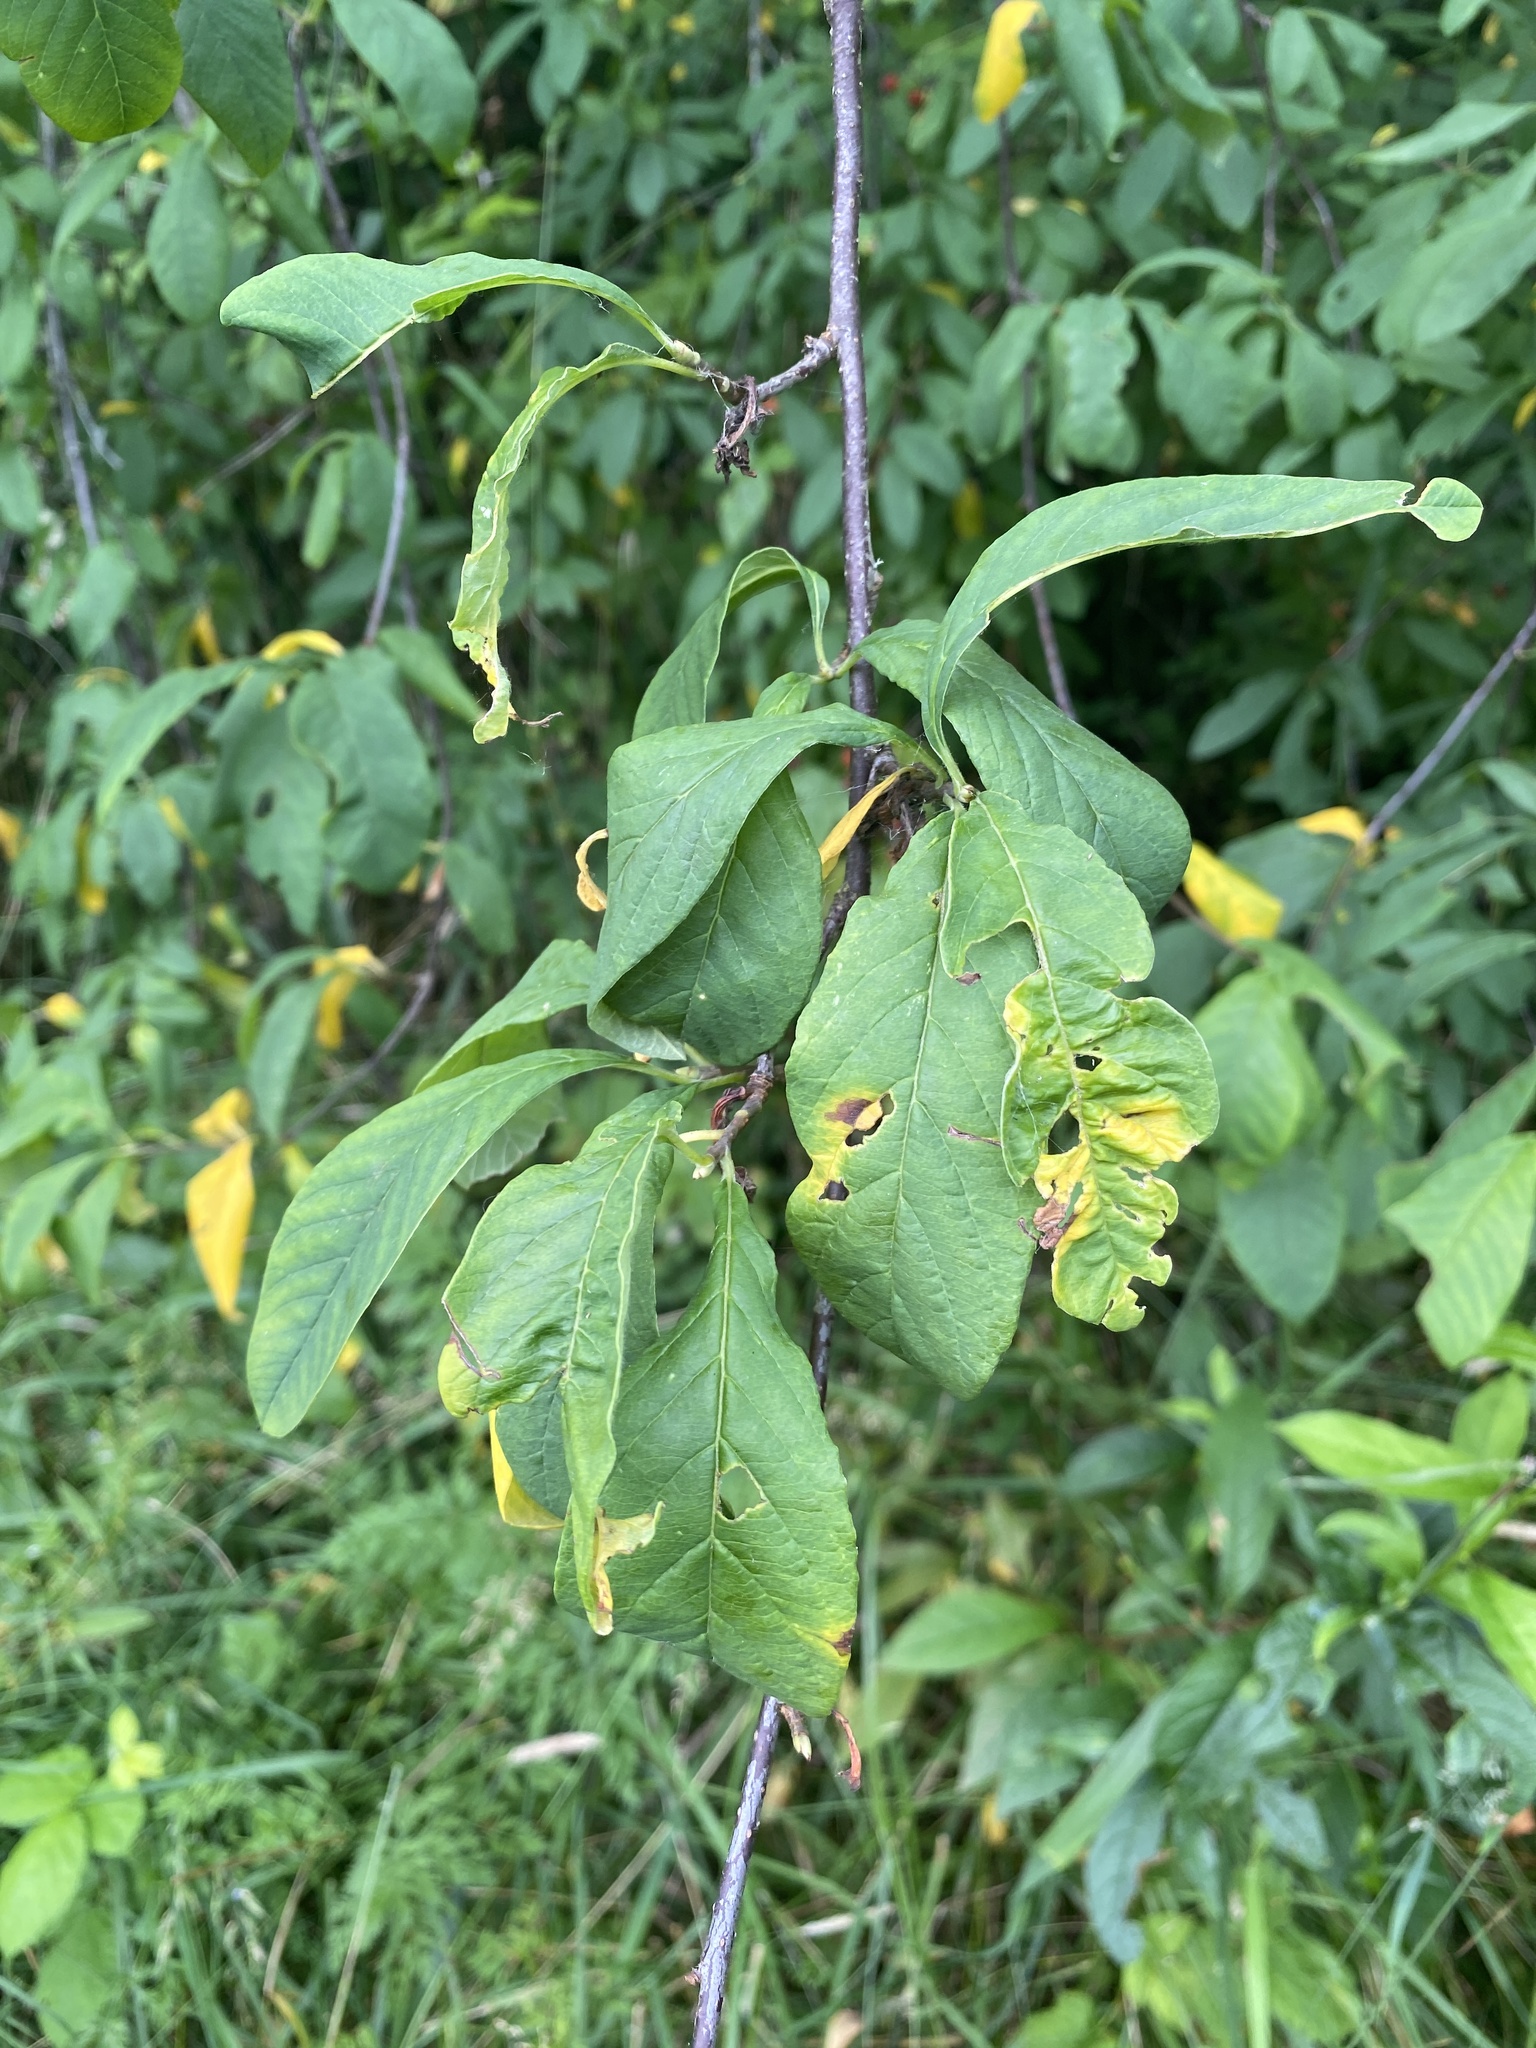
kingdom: Plantae
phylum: Tracheophyta
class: Magnoliopsida
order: Rosales
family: Rosaceae
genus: Oemleria
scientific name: Oemleria cerasiformis
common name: Osoberry
